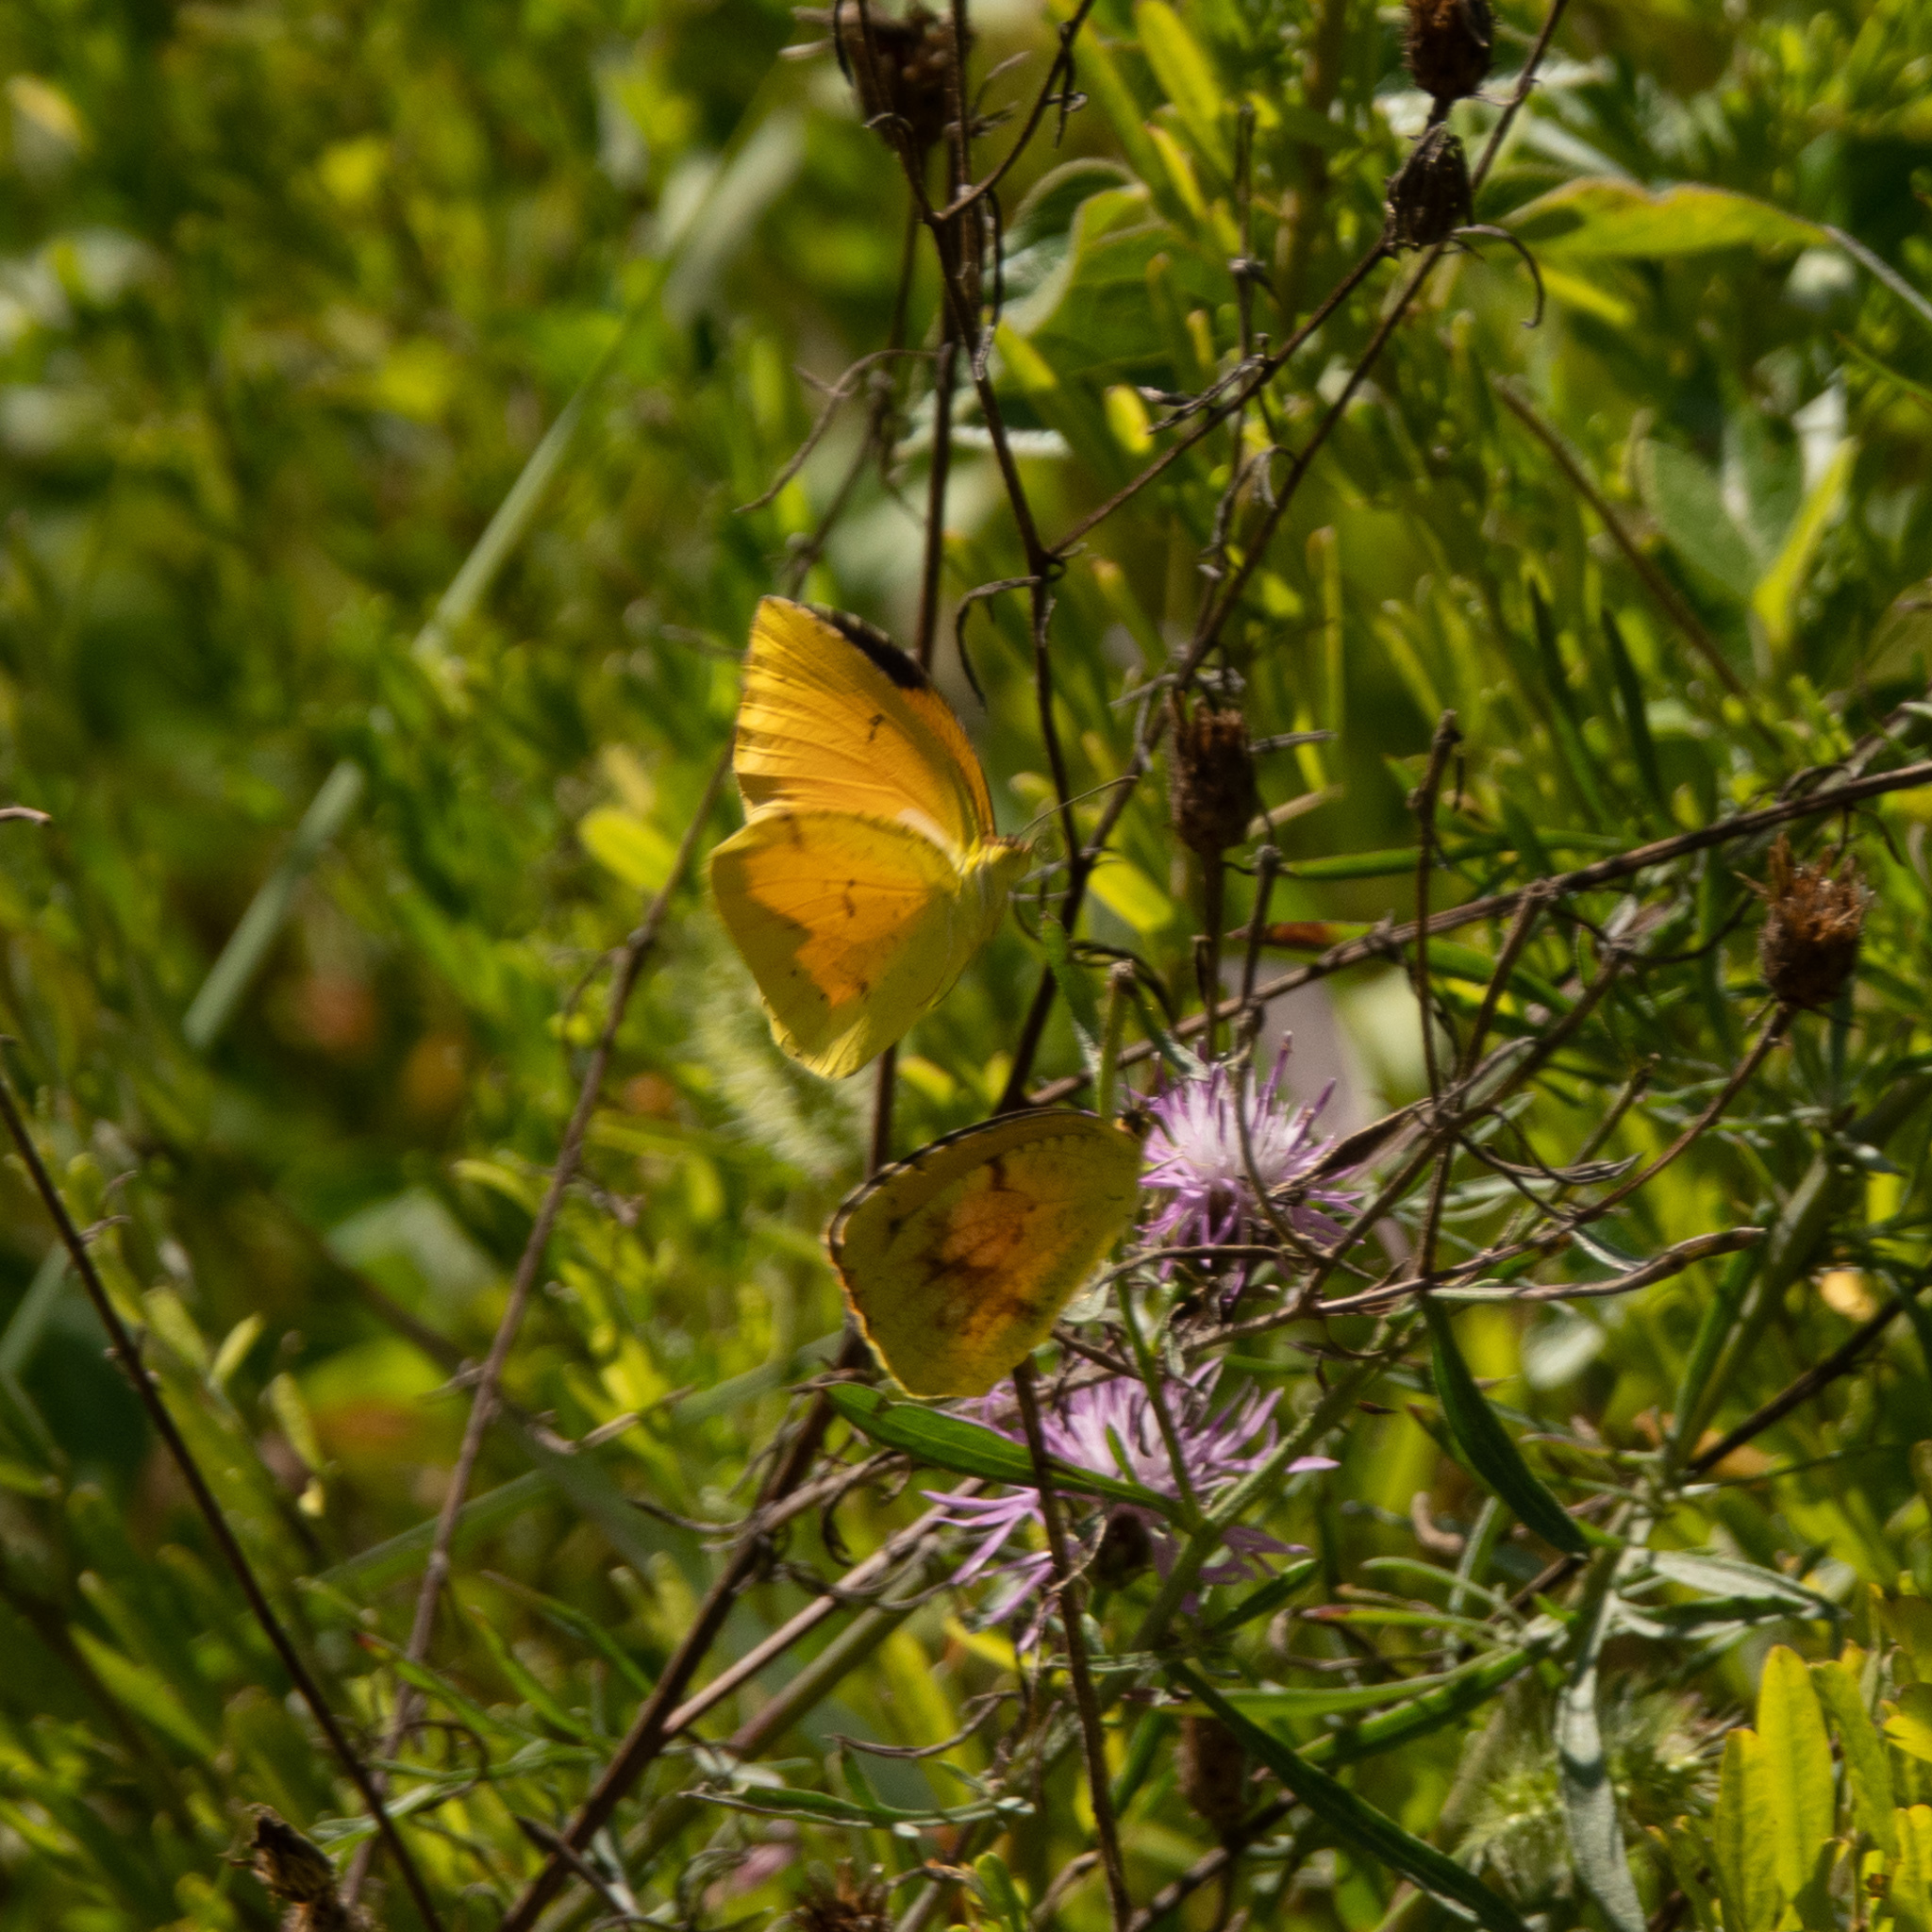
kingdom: Animalia
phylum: Arthropoda
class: Insecta
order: Lepidoptera
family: Pieridae
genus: Abaeis
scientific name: Abaeis nicippe
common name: Sleepy orange
